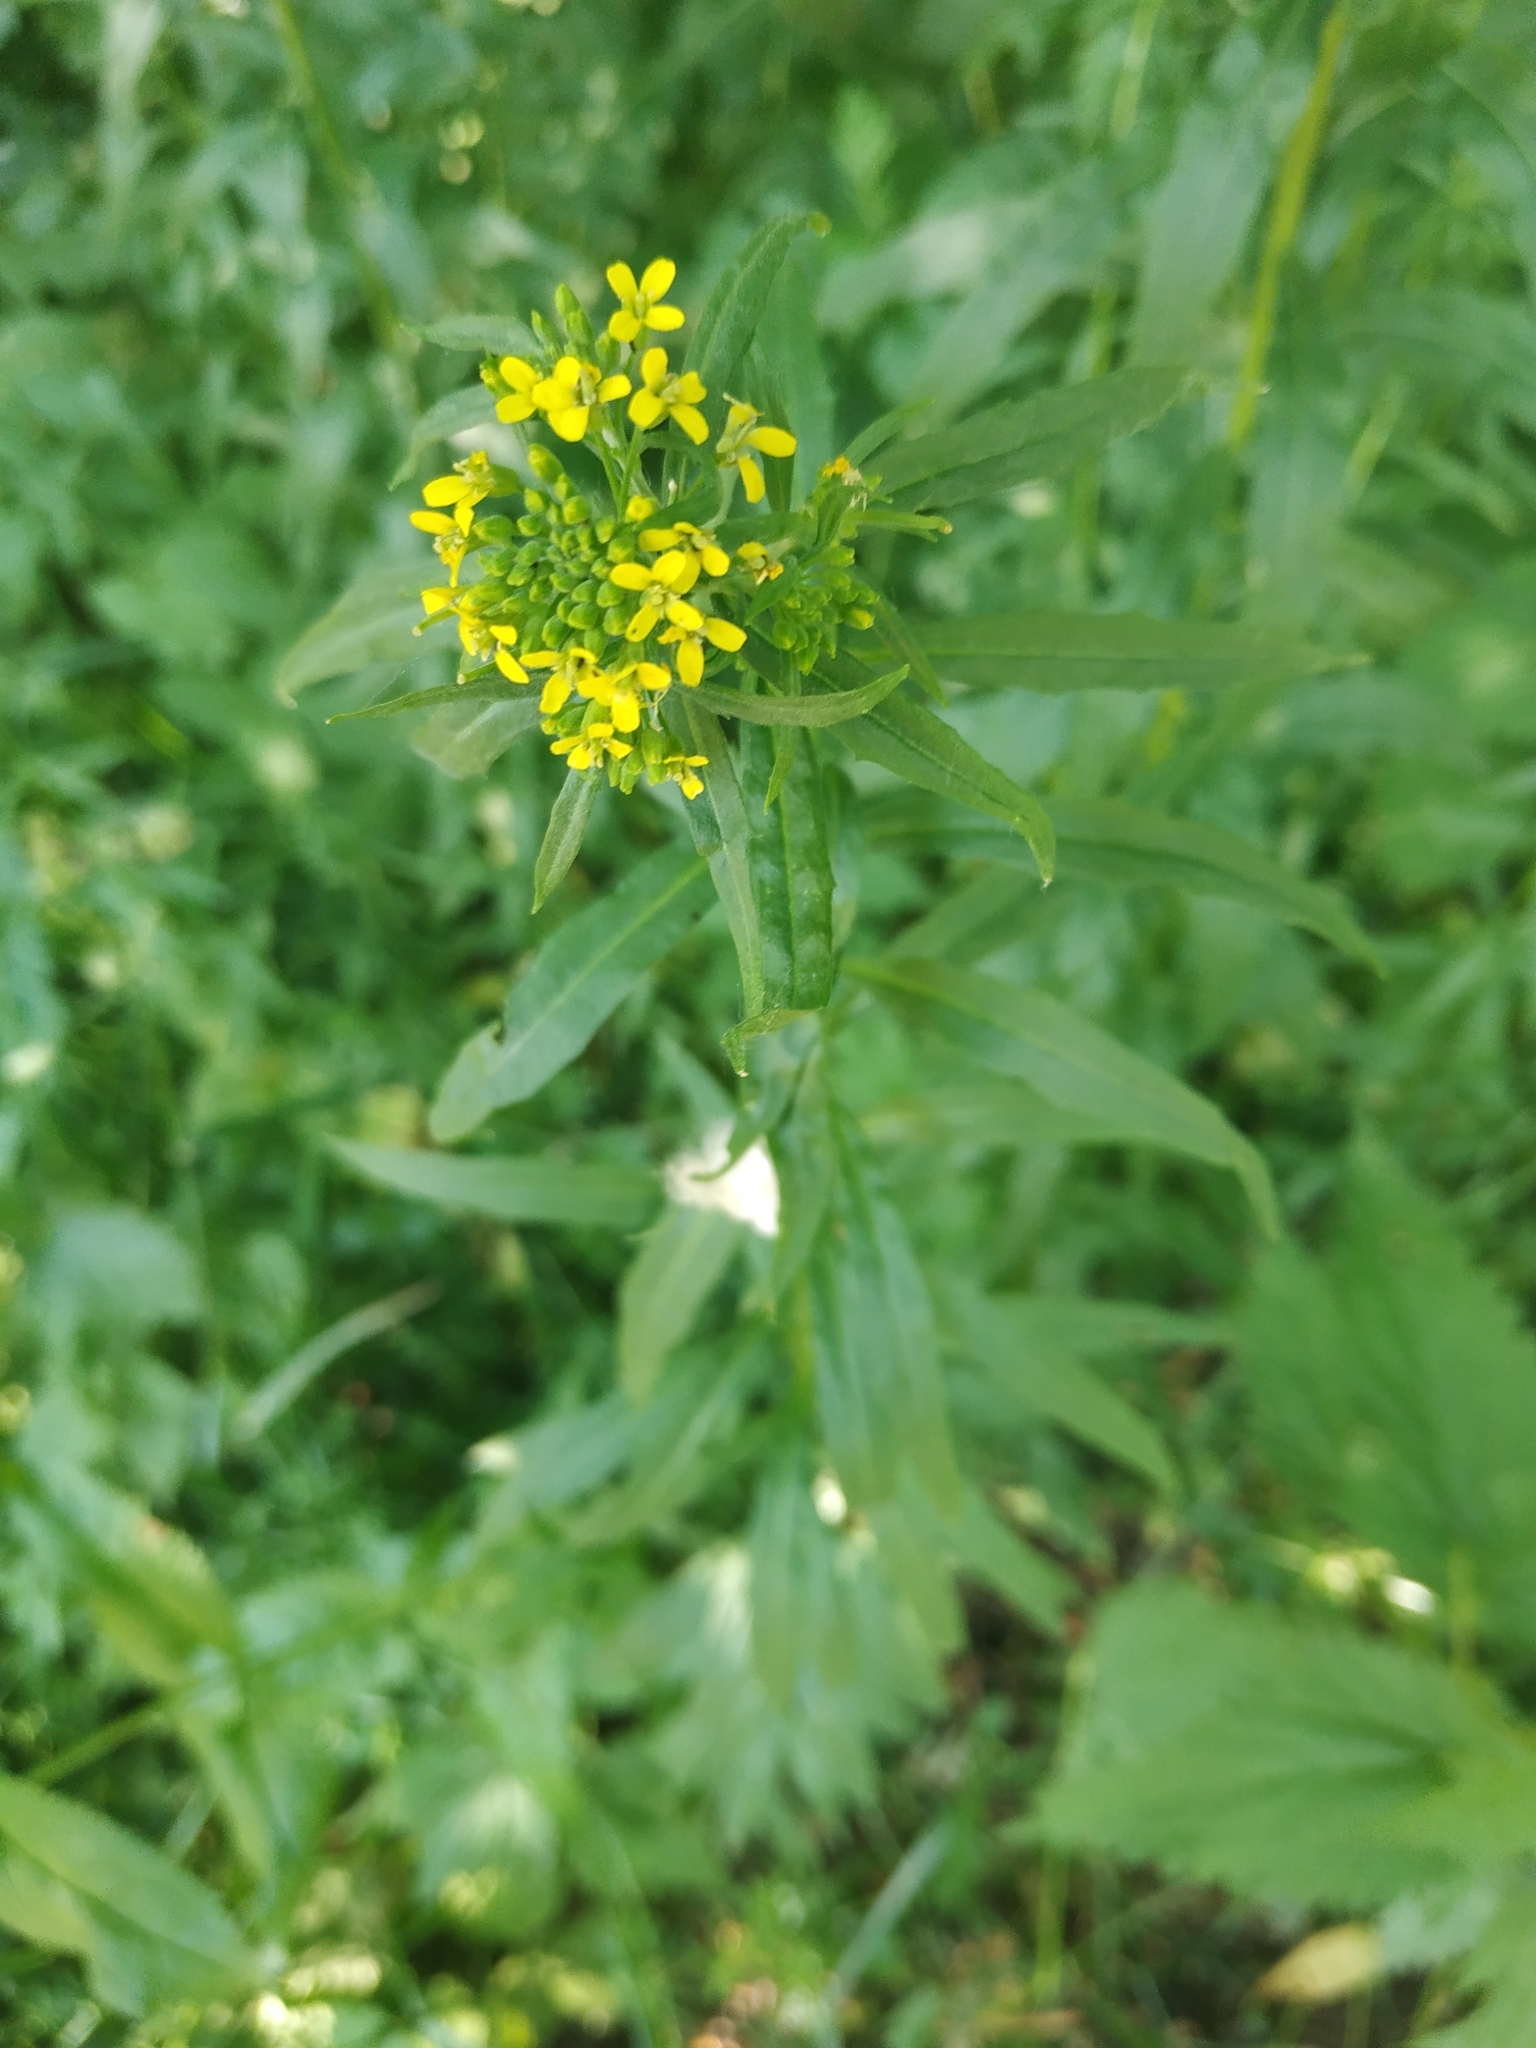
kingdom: Plantae
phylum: Tracheophyta
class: Magnoliopsida
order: Brassicales
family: Brassicaceae
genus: Erysimum
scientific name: Erysimum cheiranthoides
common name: Treacle mustard
